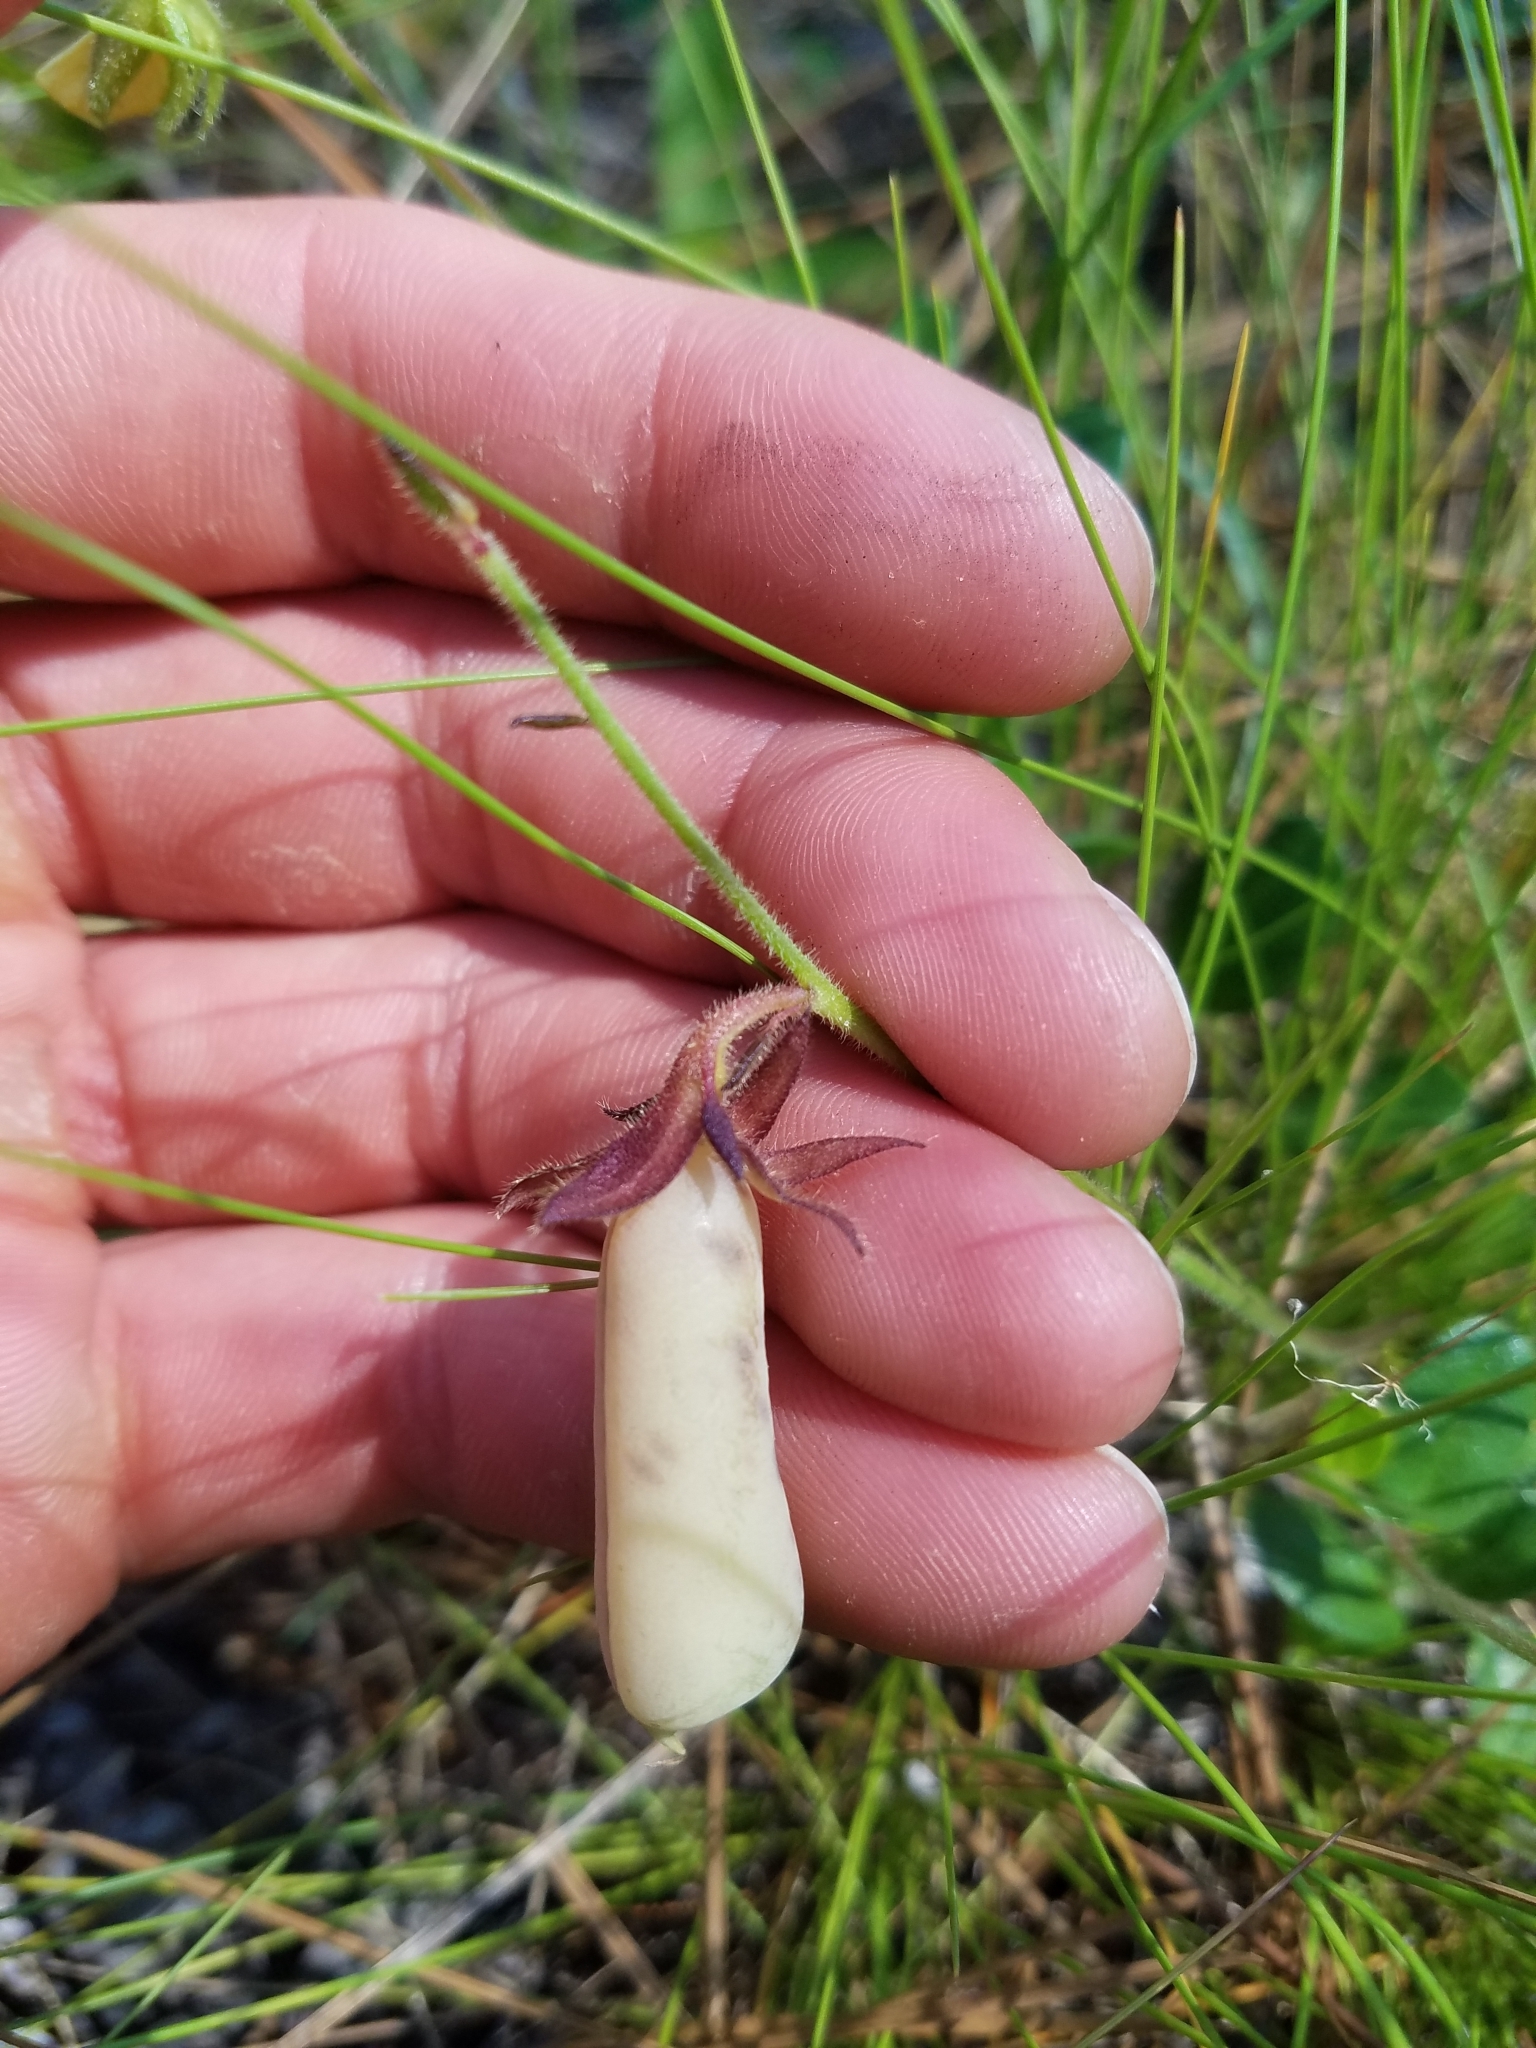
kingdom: Plantae
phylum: Tracheophyta
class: Magnoliopsida
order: Fabales
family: Fabaceae
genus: Crotalaria
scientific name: Crotalaria rotundifolia
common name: Prostrate rattlebox
